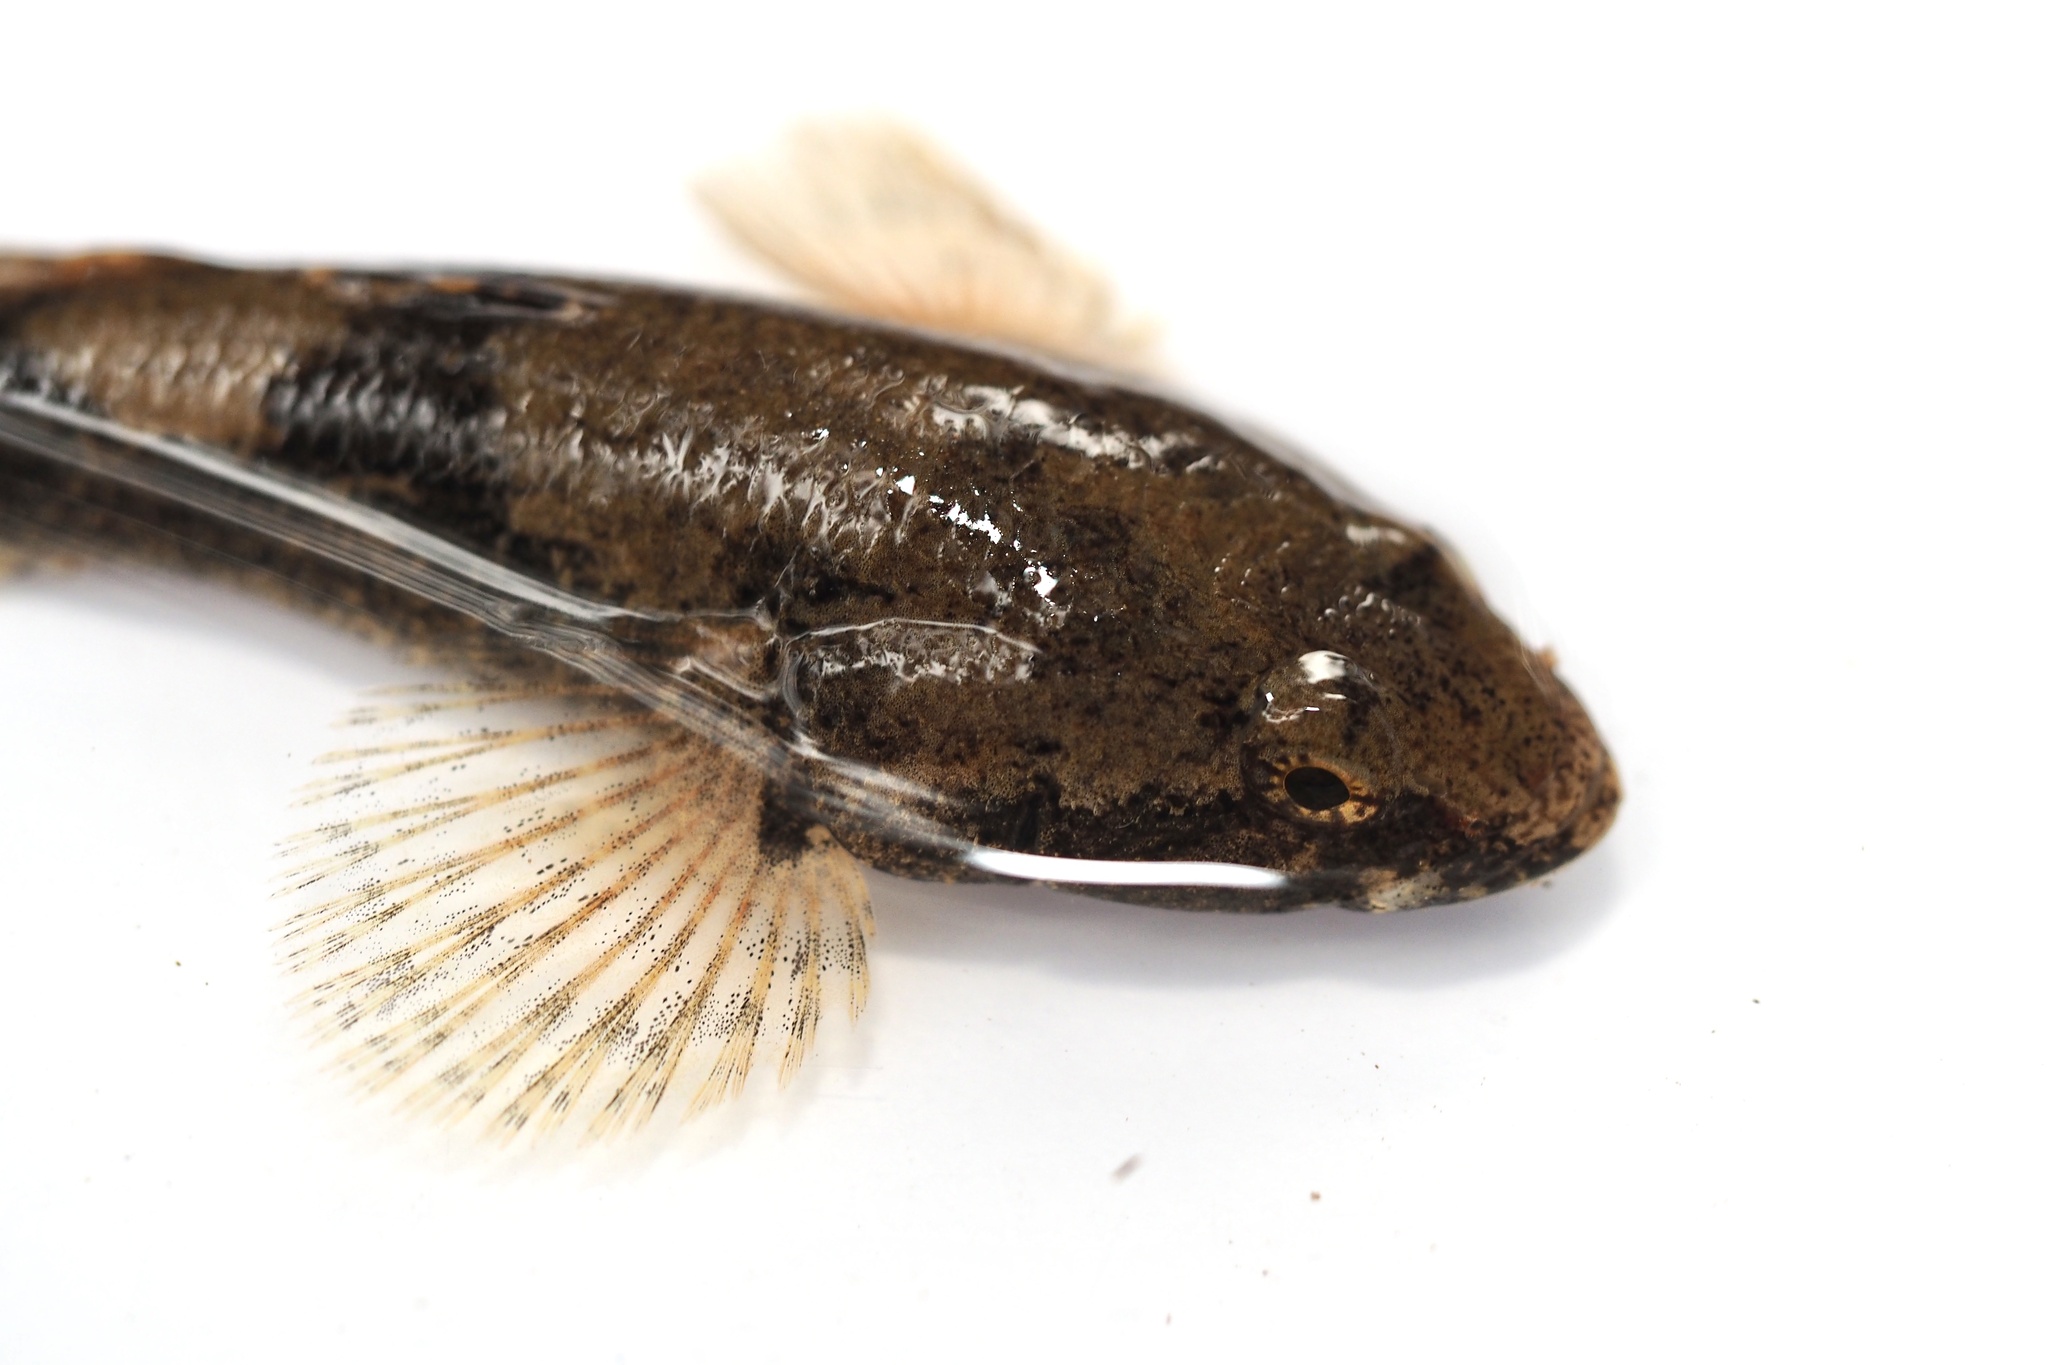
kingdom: Animalia
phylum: Chordata
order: Perciformes
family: Odontobutidae
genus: Odontobutis
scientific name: Odontobutis obscura
